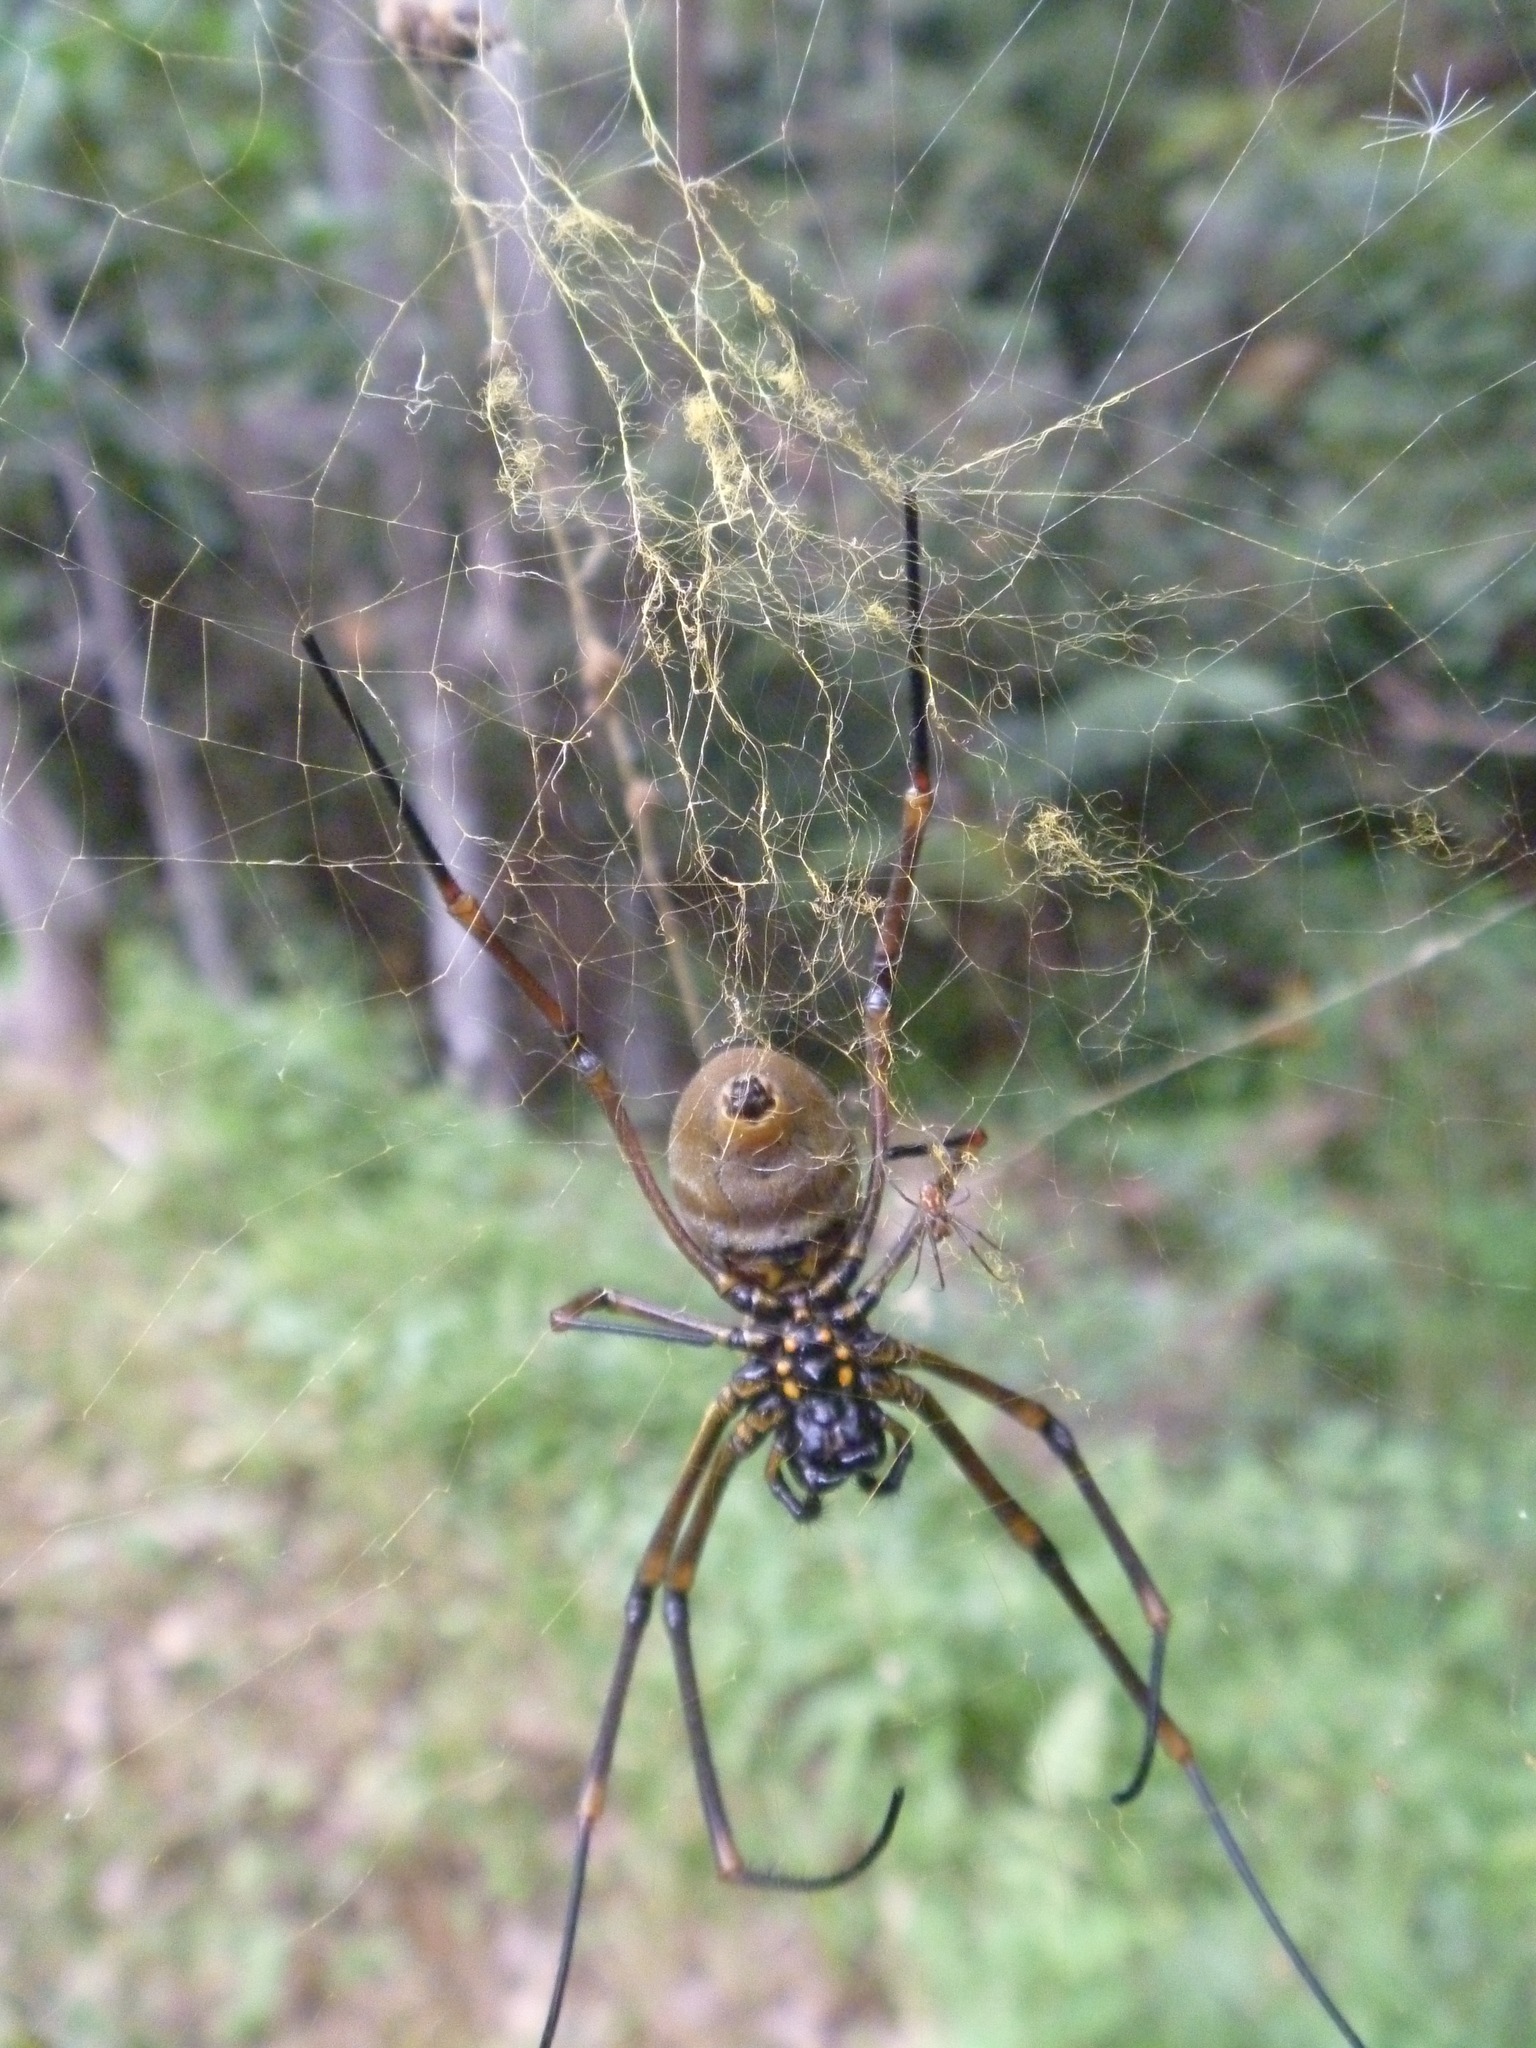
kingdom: Animalia
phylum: Arthropoda
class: Arachnida
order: Araneae
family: Araneidae
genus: Trichonephila
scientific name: Trichonephila plumipes
